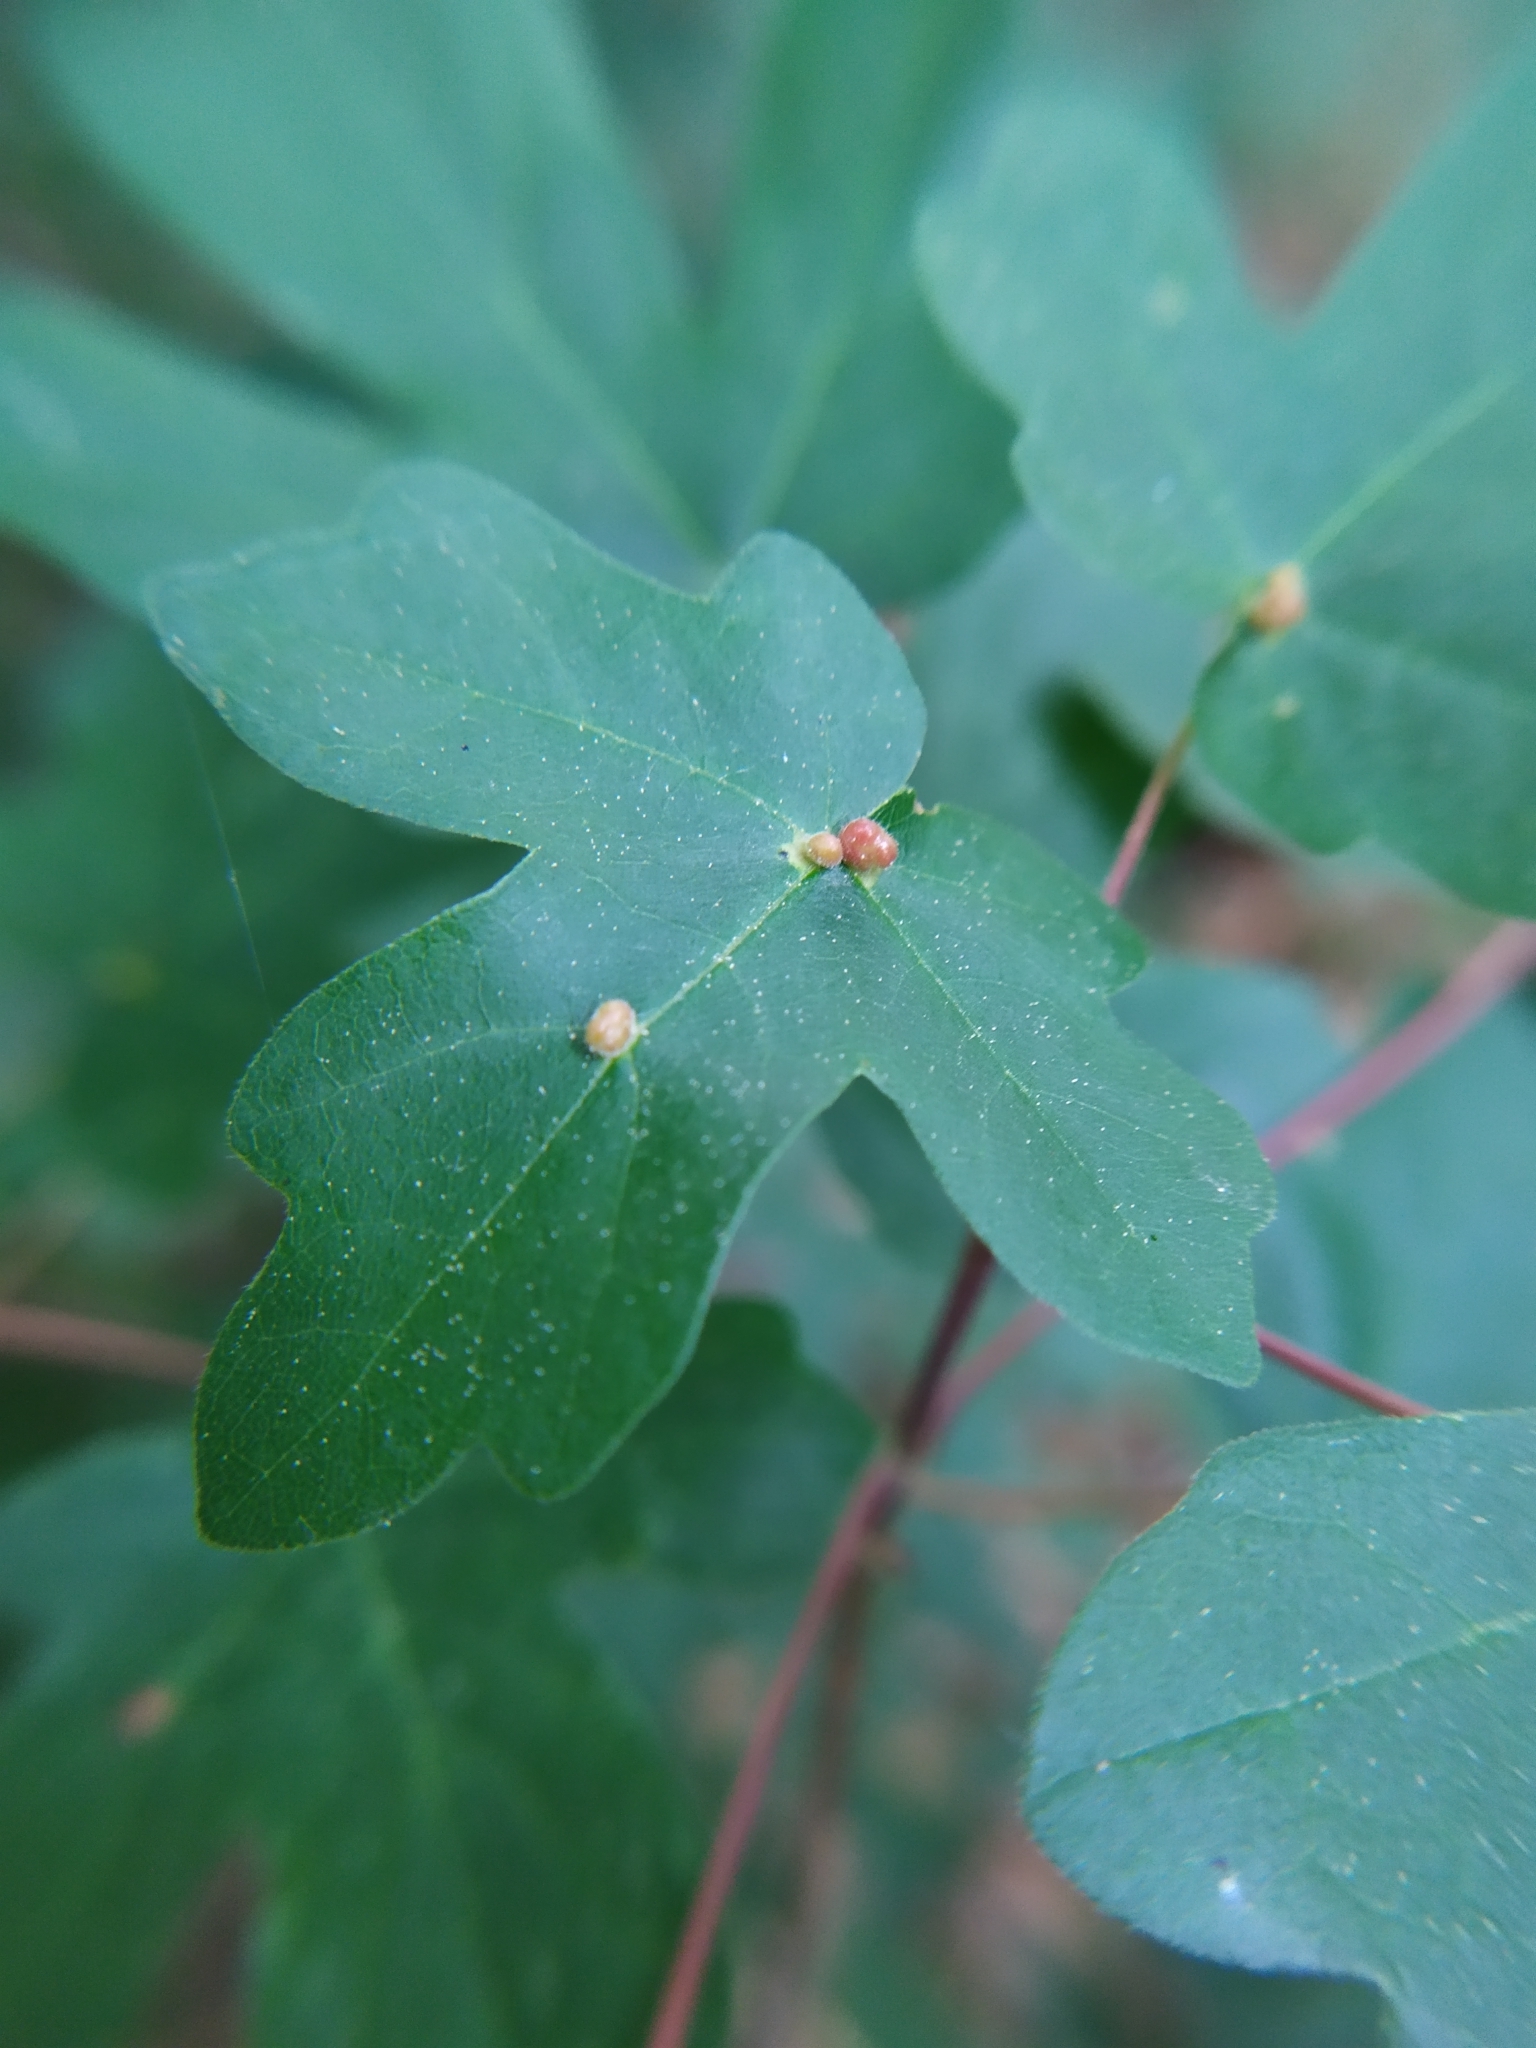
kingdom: Plantae
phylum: Tracheophyta
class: Magnoliopsida
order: Sapindales
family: Sapindaceae
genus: Acer
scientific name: Acer campestre
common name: Field maple
